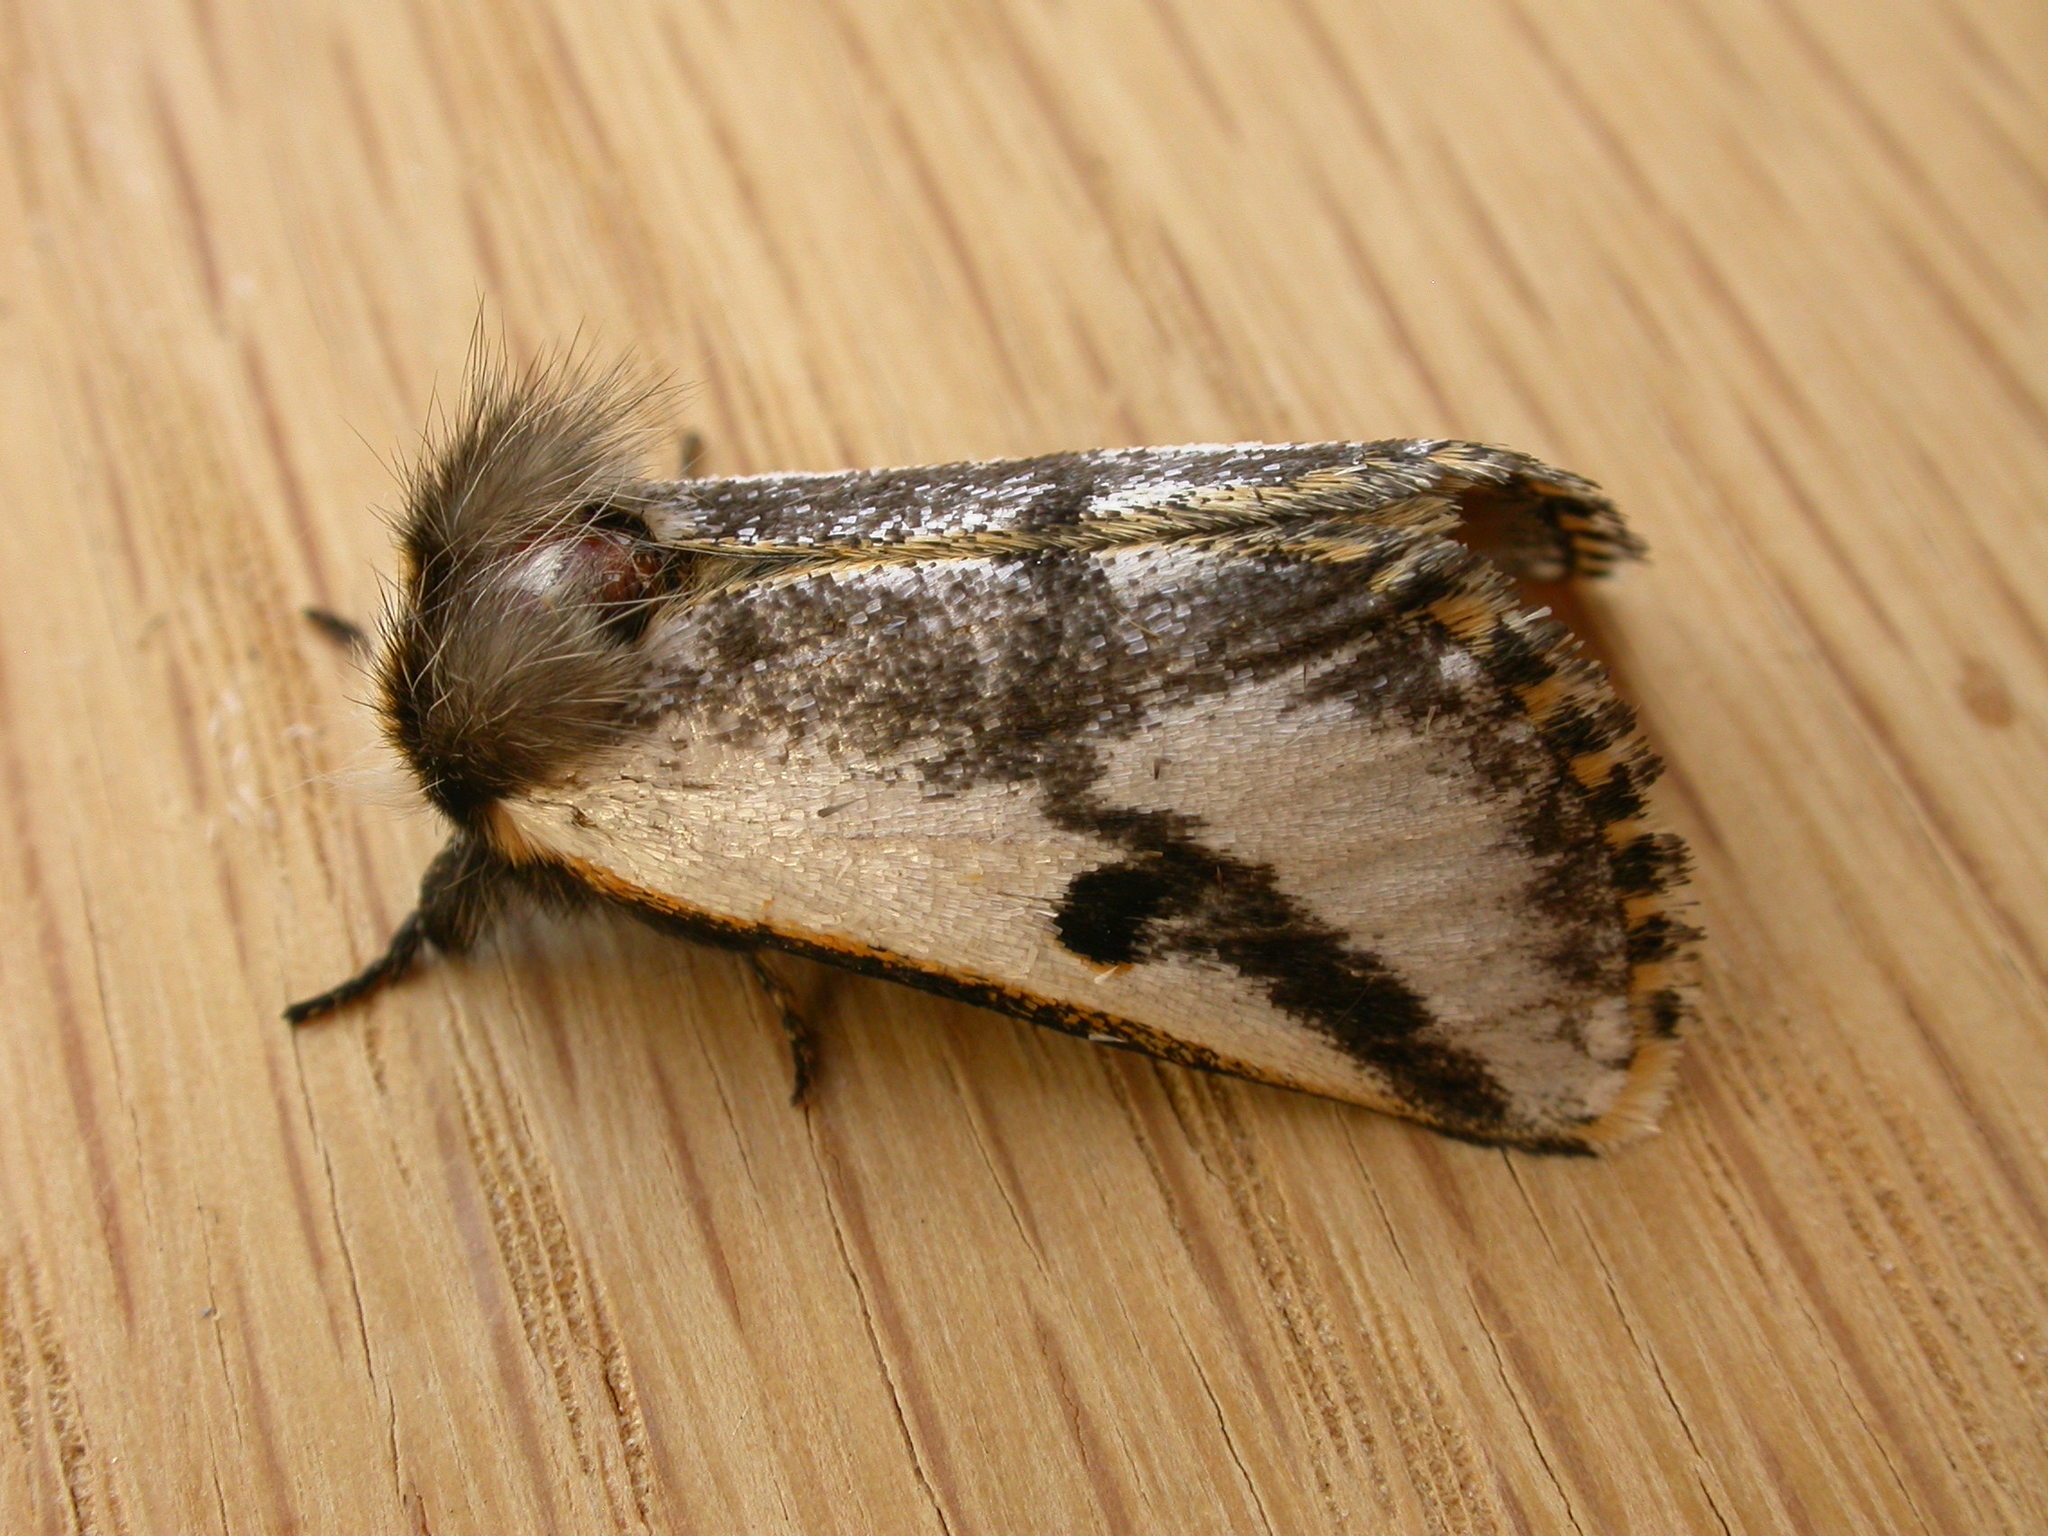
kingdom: Animalia
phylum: Arthropoda
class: Insecta
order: Lepidoptera
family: Notodontidae
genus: Epicoma
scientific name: Epicoma melanospila
